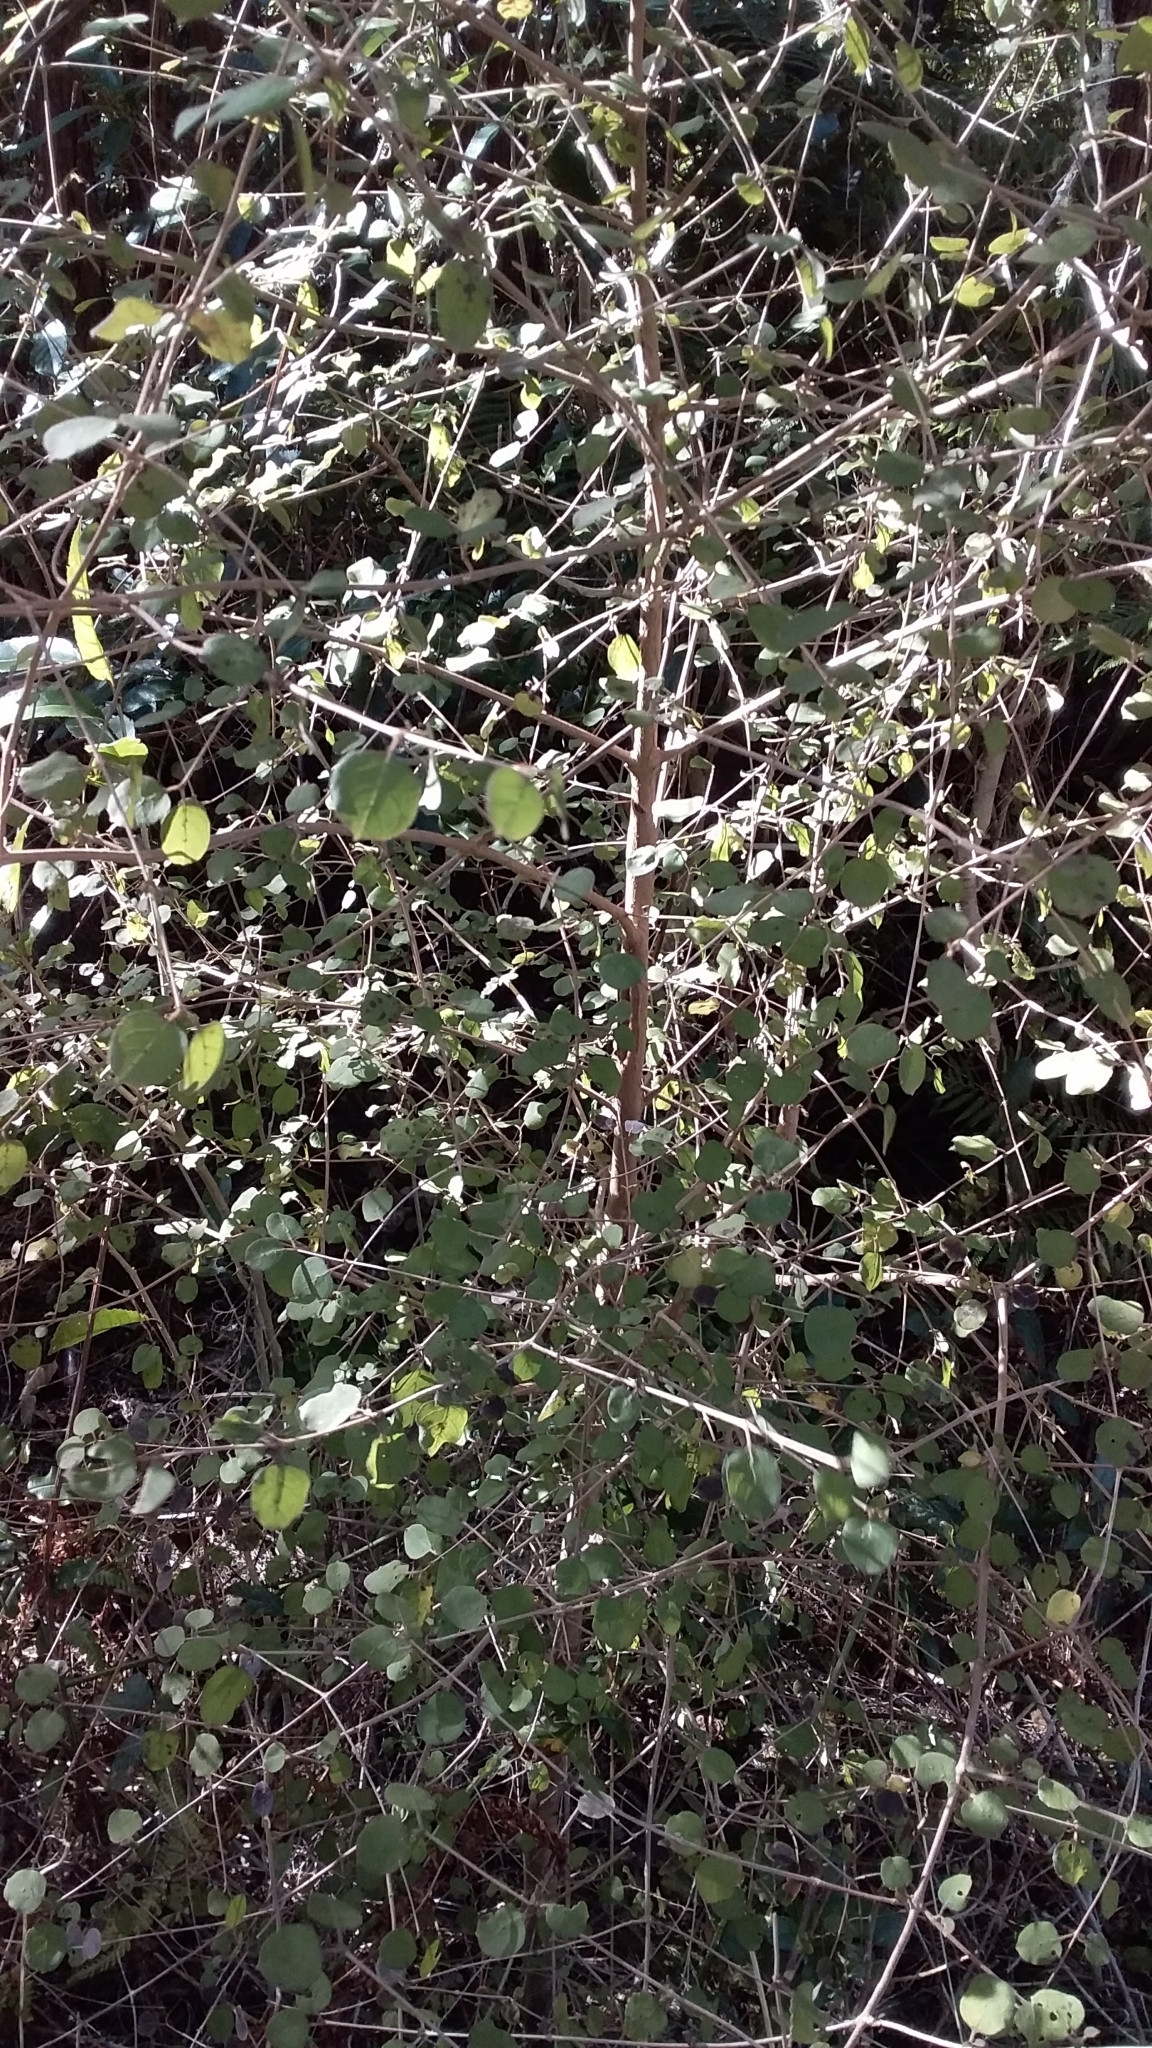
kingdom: Plantae
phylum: Tracheophyta
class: Magnoliopsida
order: Gentianales
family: Rubiaceae
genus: Coprosma
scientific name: Coprosma rotundifolia
